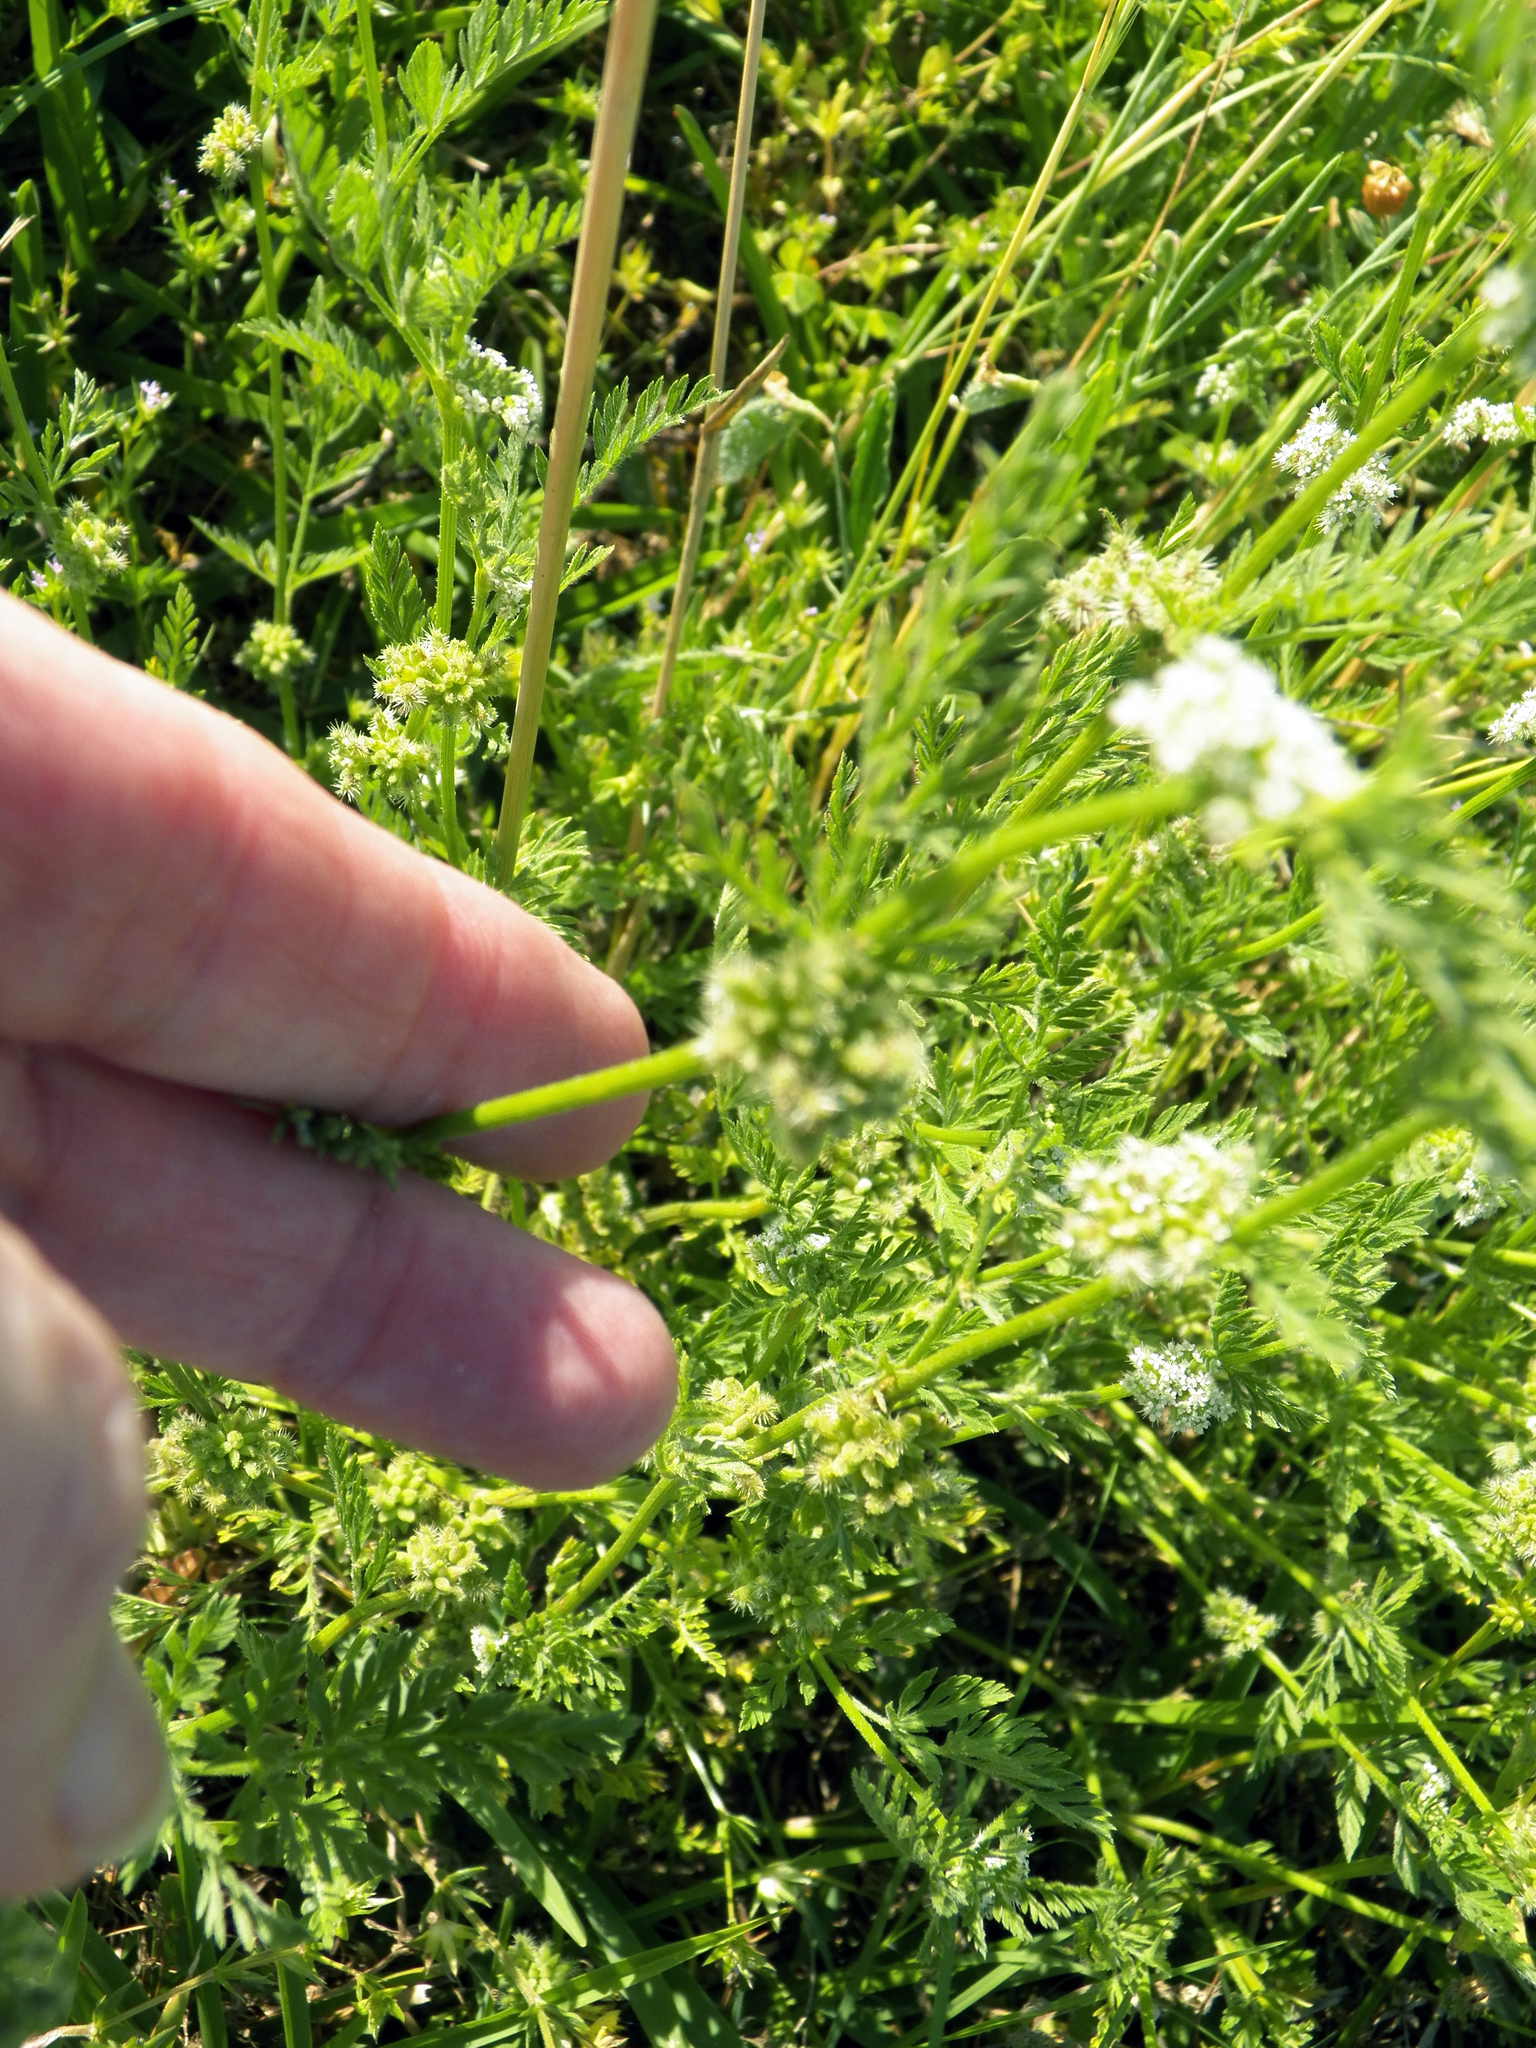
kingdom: Plantae
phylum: Tracheophyta
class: Magnoliopsida
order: Apiales
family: Apiaceae
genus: Torilis
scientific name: Torilis nodosa
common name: Knotted hedge-parsley
